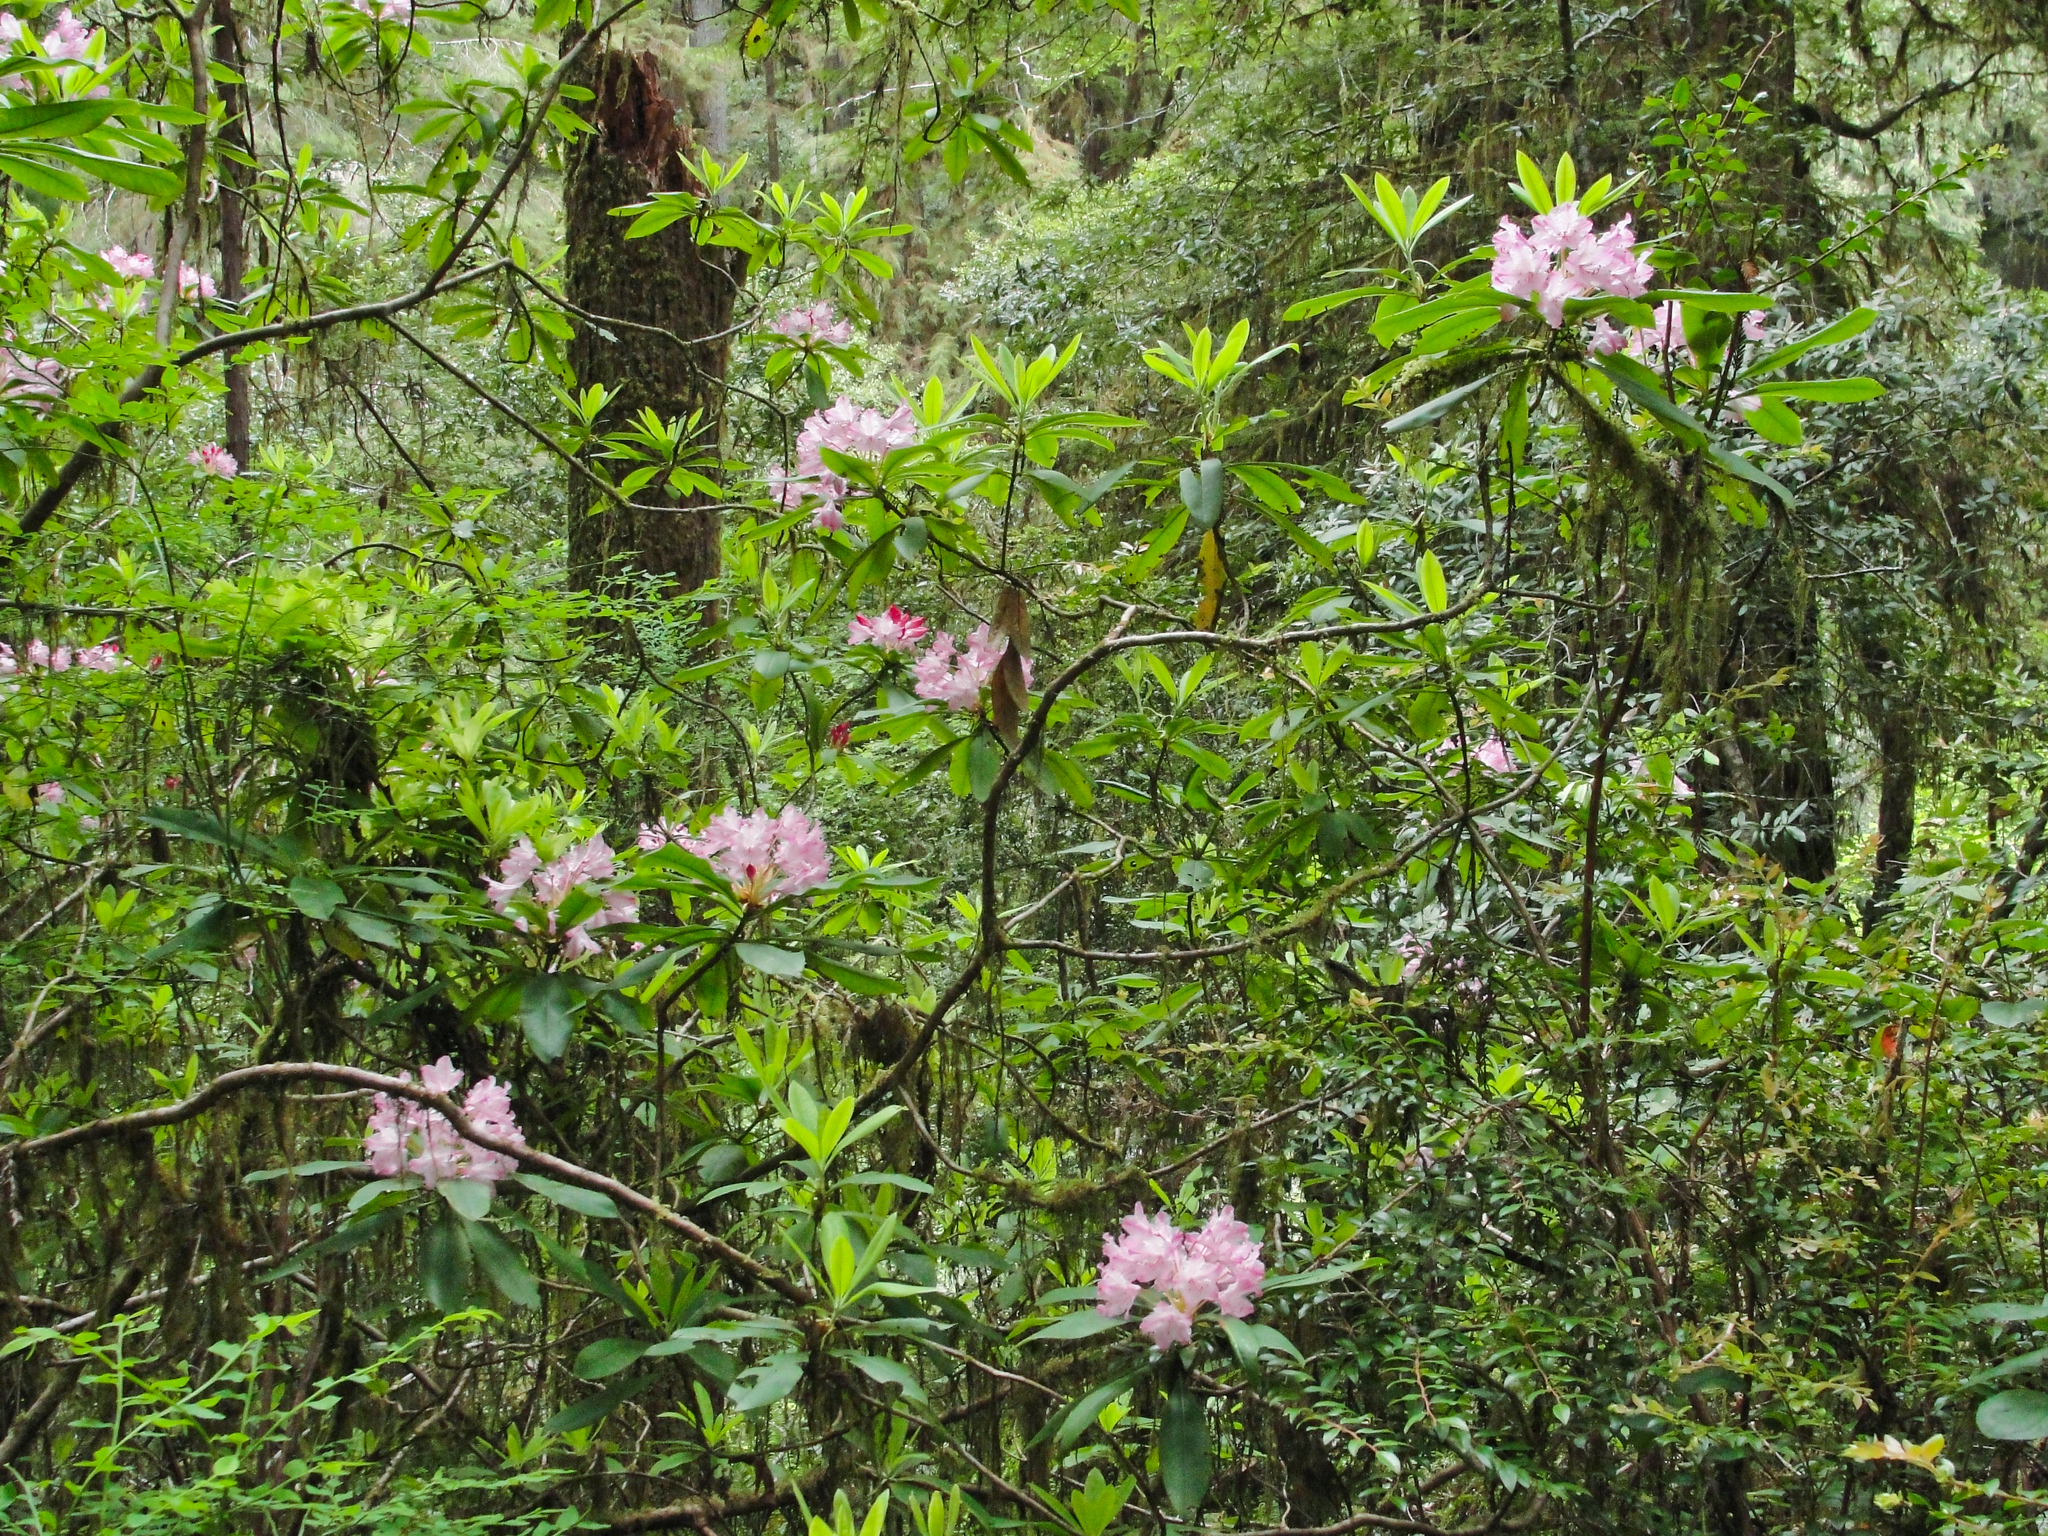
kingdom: Plantae
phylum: Tracheophyta
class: Magnoliopsida
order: Ericales
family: Ericaceae
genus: Rhododendron
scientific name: Rhododendron macrophyllum
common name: California rose bay
